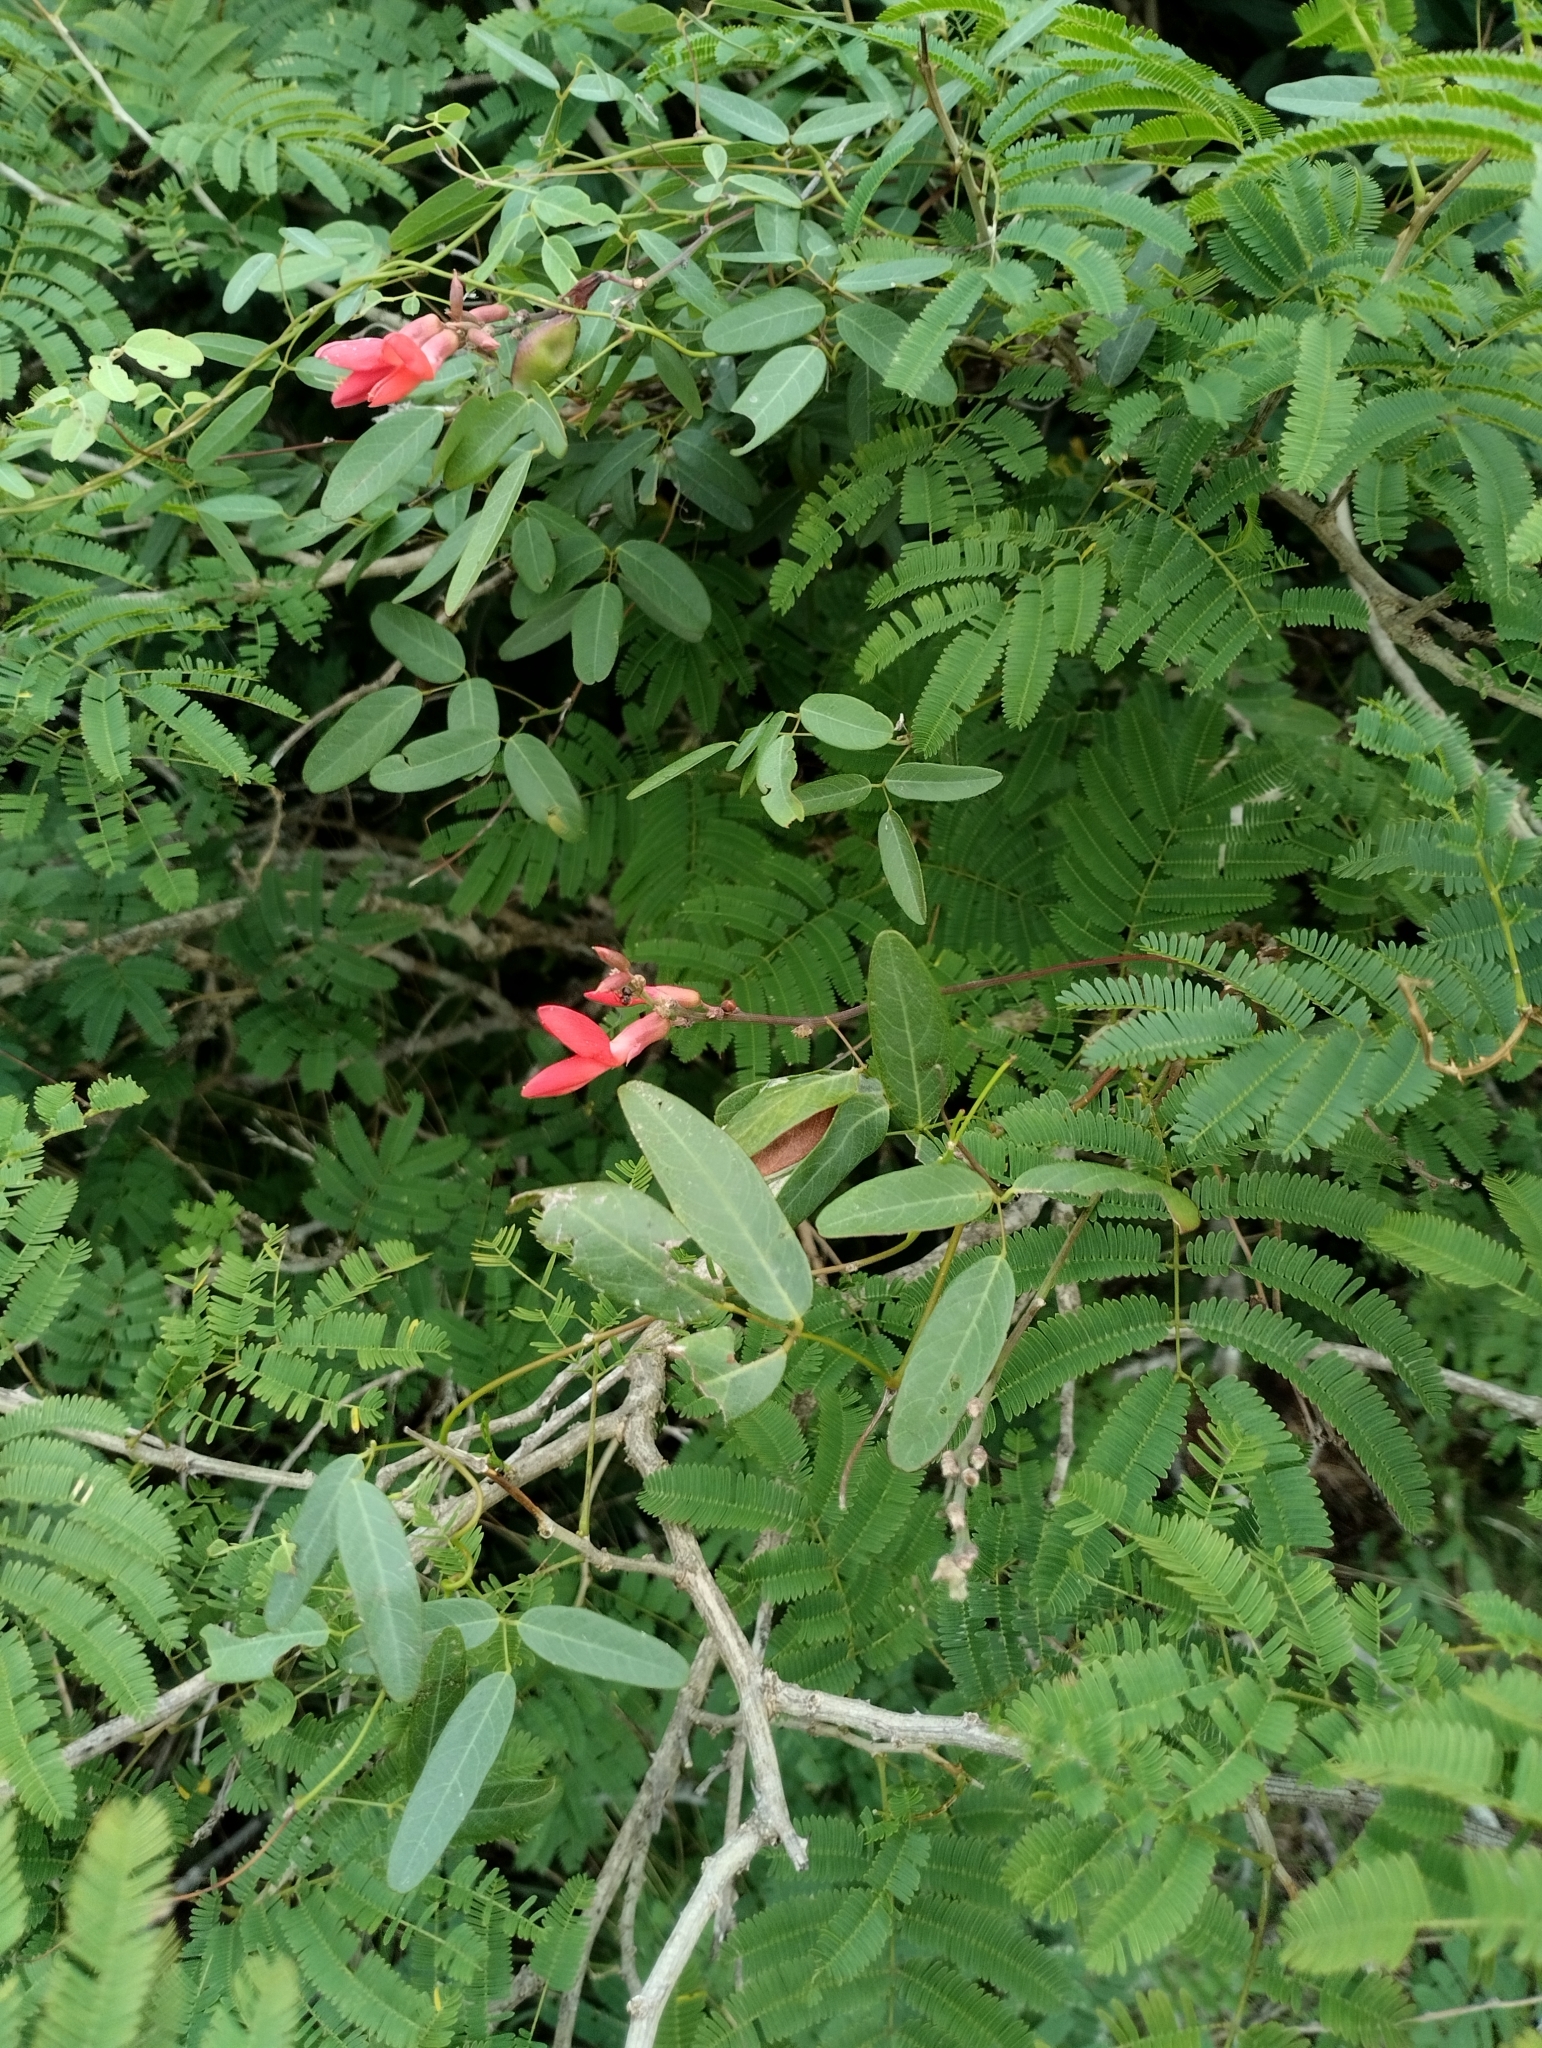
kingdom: Plantae
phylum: Tracheophyta
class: Magnoliopsida
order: Fabales
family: Fabaceae
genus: Camptosema
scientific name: Camptosema rubicundum
